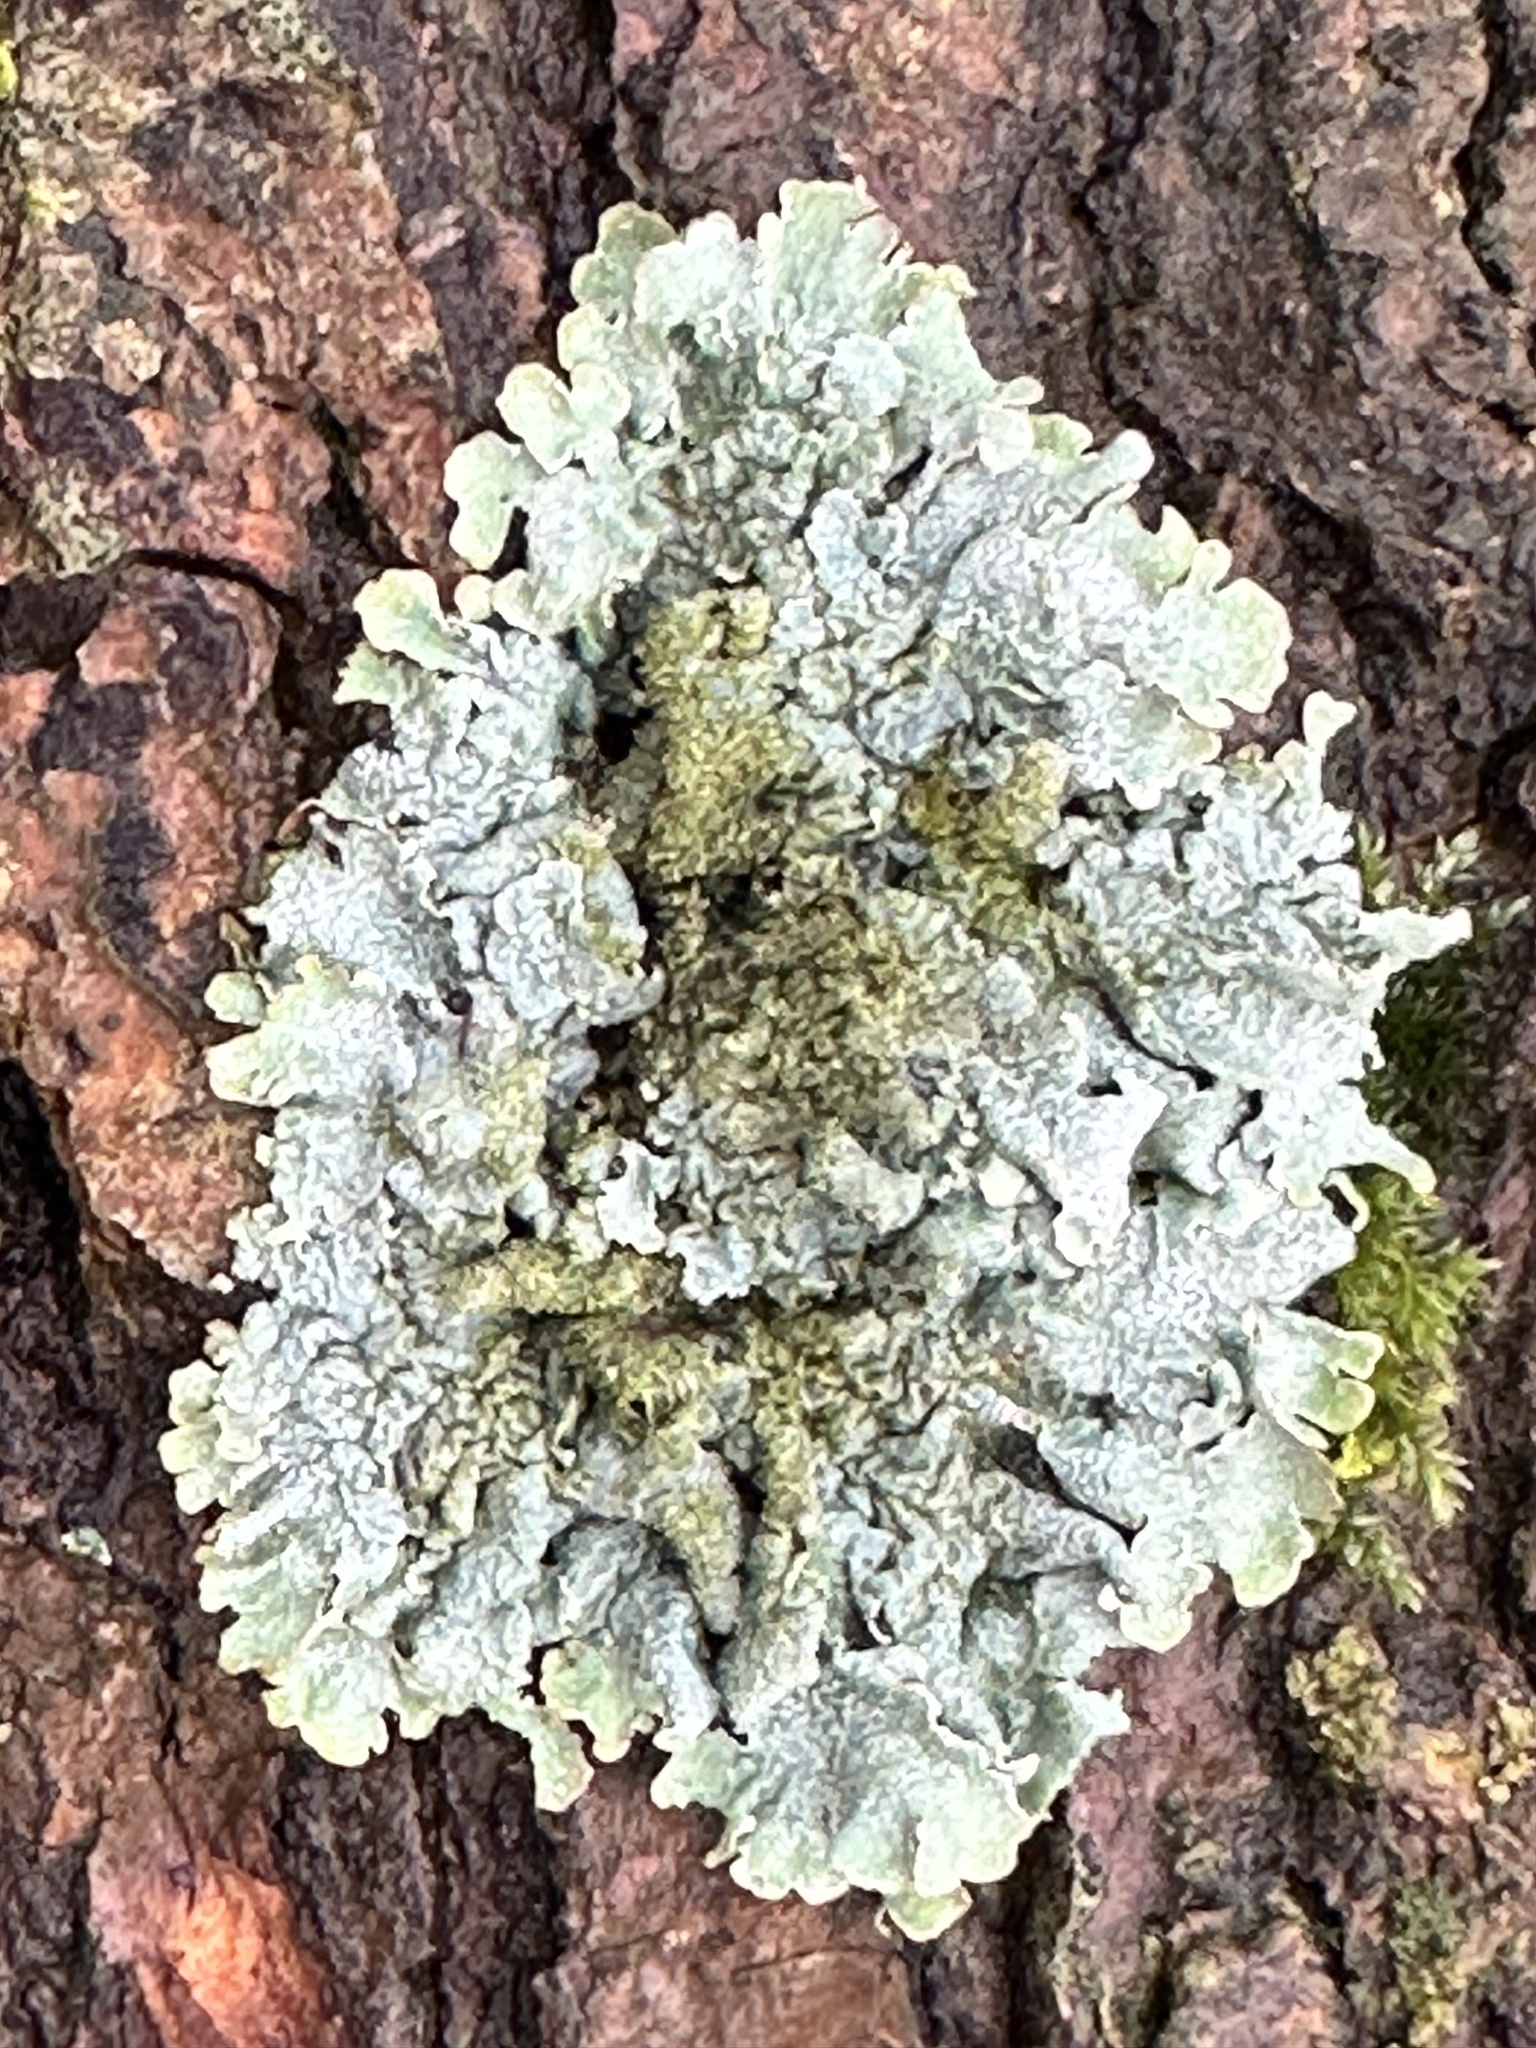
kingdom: Fungi
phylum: Ascomycota
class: Lecanoromycetes
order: Lecanorales
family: Parmeliaceae
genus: Parmelia
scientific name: Parmelia sulcata
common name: Netted shield lichen
